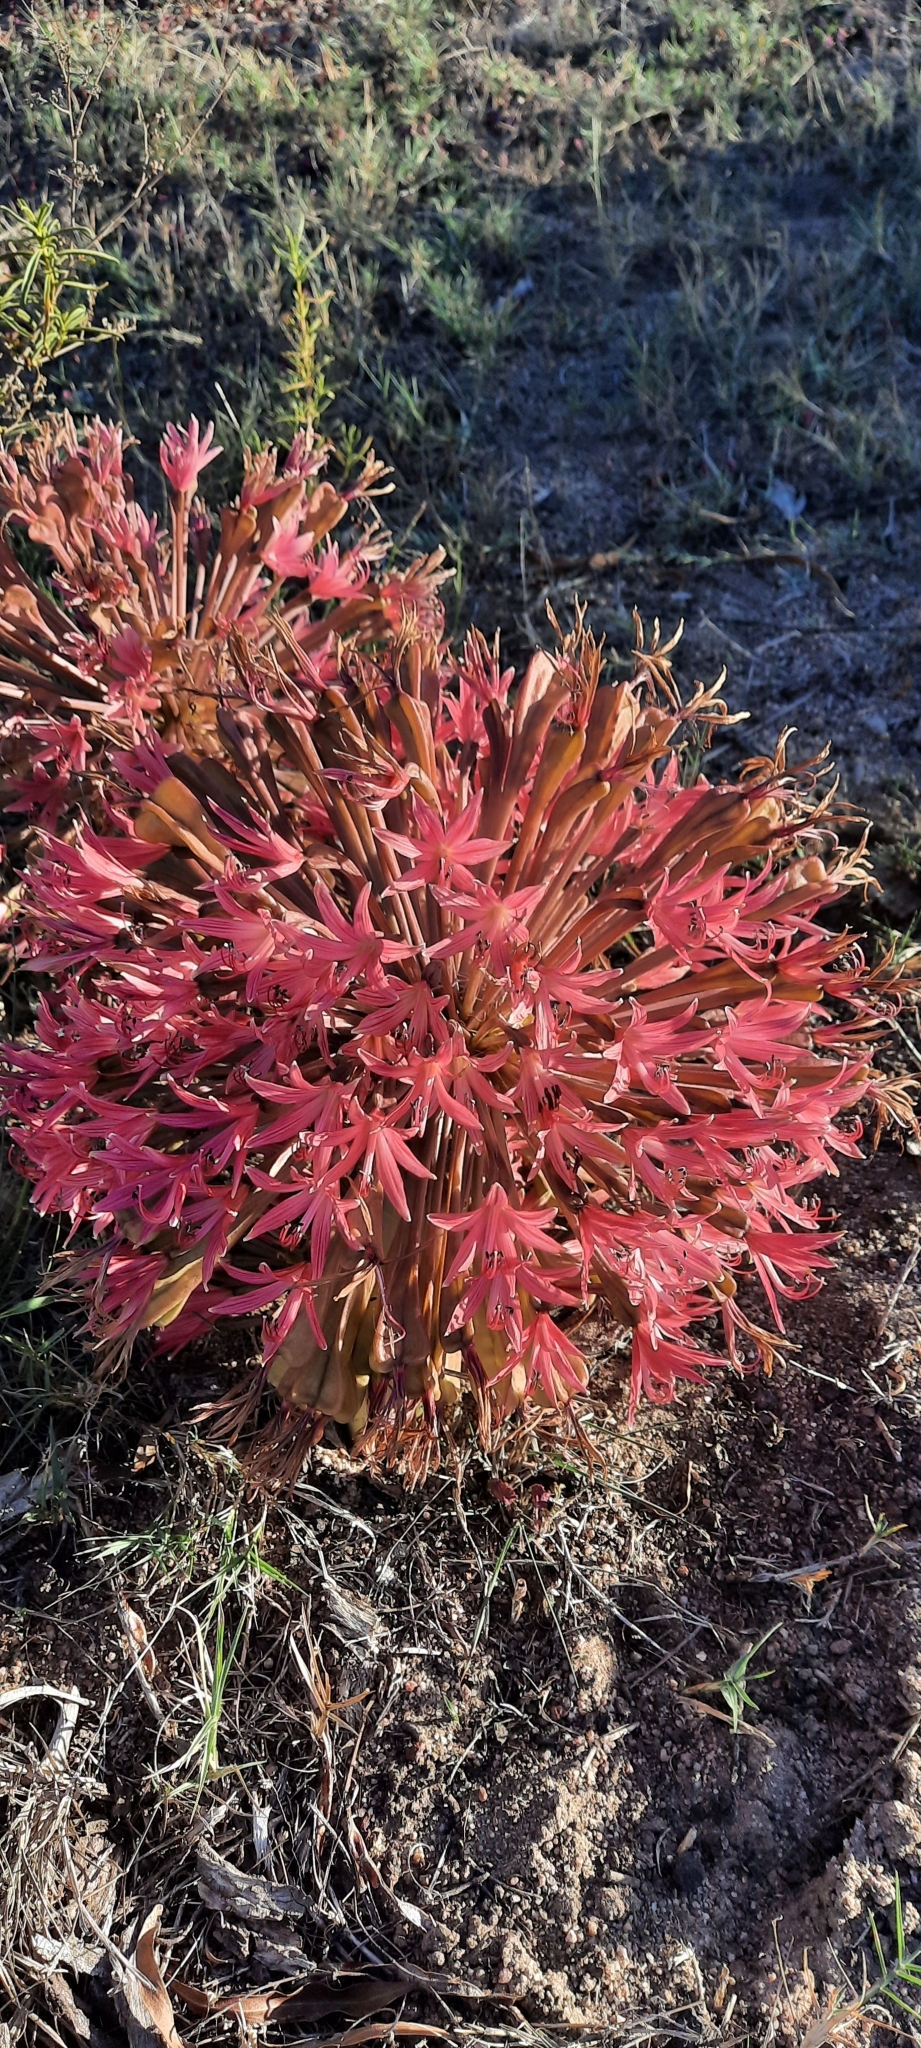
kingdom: Plantae
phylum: Tracheophyta
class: Liliopsida
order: Asparagales
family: Amaryllidaceae
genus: Brunsvigia
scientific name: Brunsvigia nervosa
